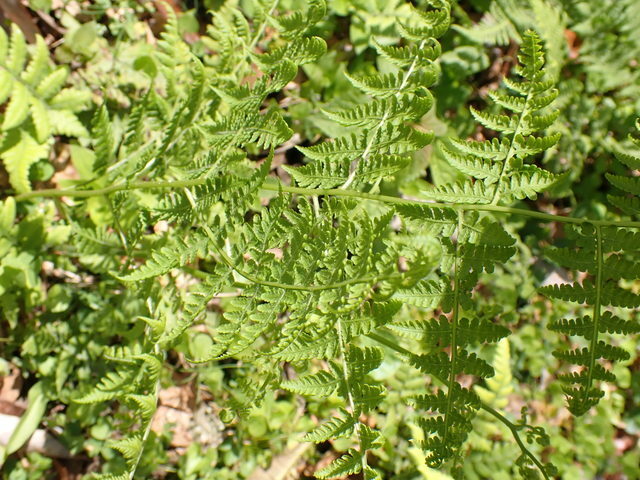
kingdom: Plantae
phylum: Tracheophyta
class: Polypodiopsida
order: Polypodiales
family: Thelypteridaceae
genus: Macrothelypteris
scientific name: Macrothelypteris torresiana
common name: Swordfern
